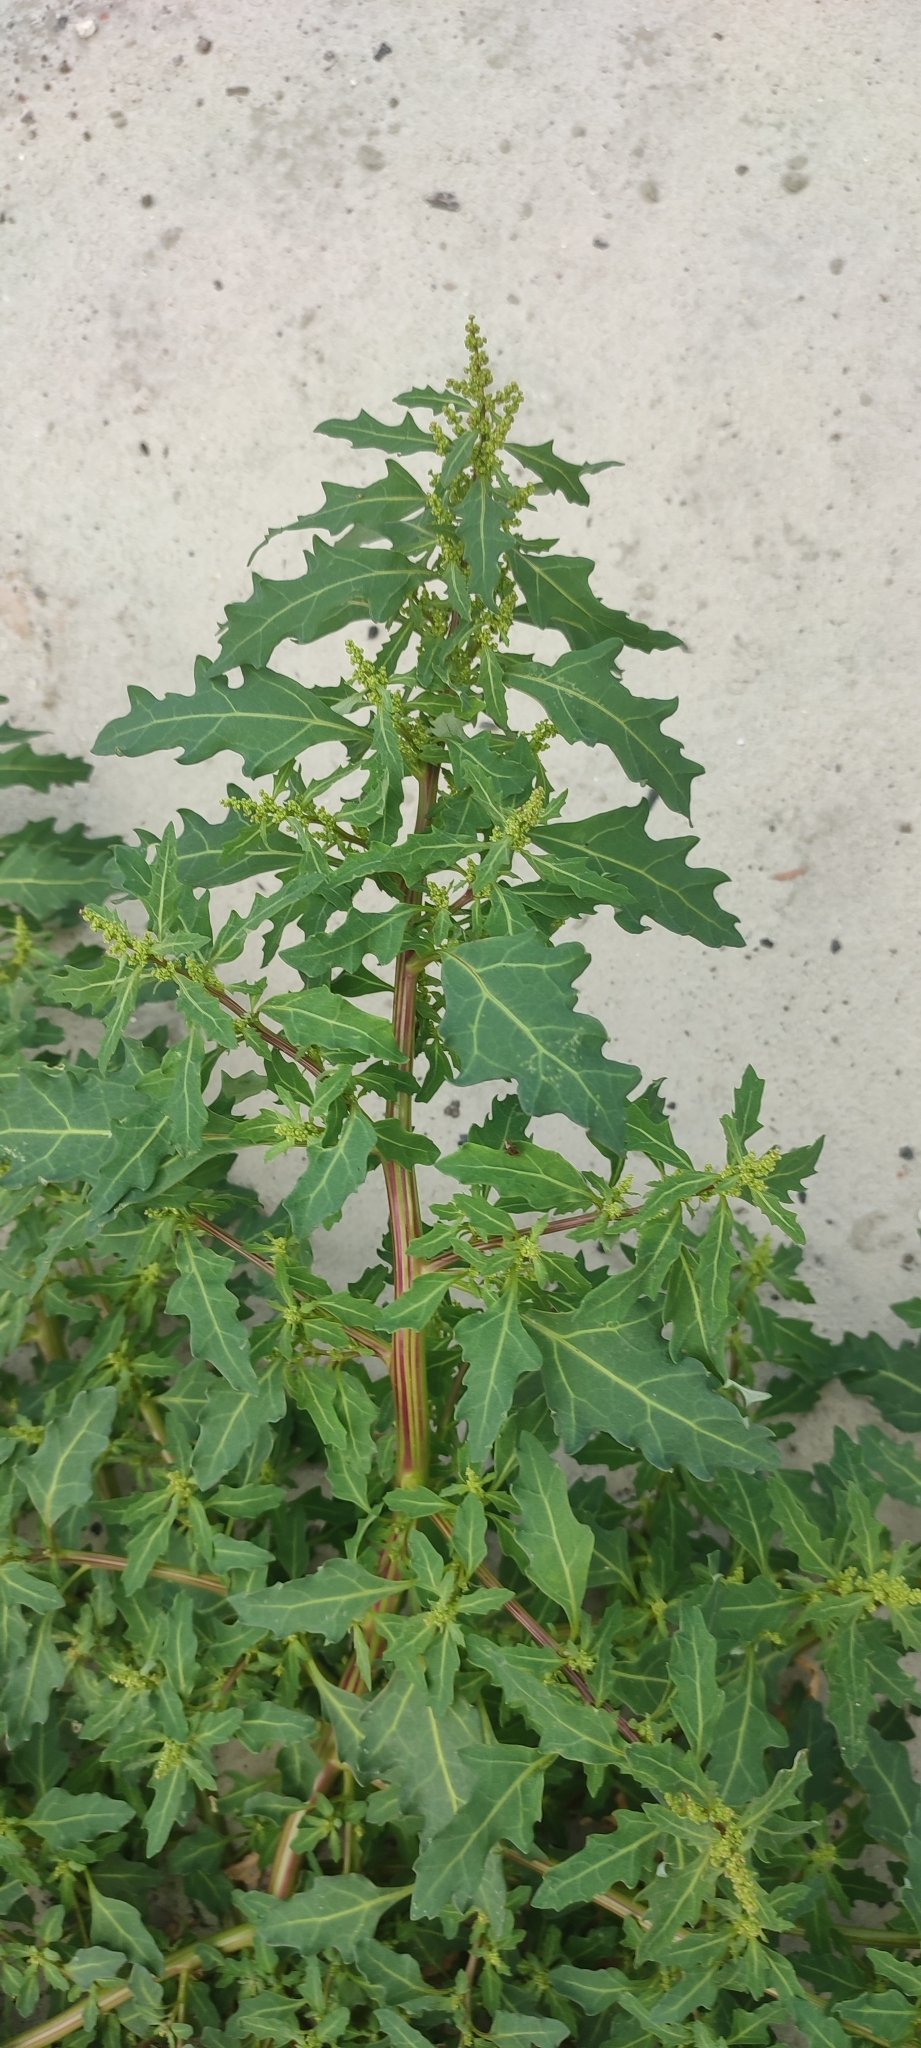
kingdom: Plantae
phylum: Tracheophyta
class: Magnoliopsida
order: Caryophyllales
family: Amaranthaceae
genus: Oxybasis
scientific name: Oxybasis glauca
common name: Glaucous goosefoot
